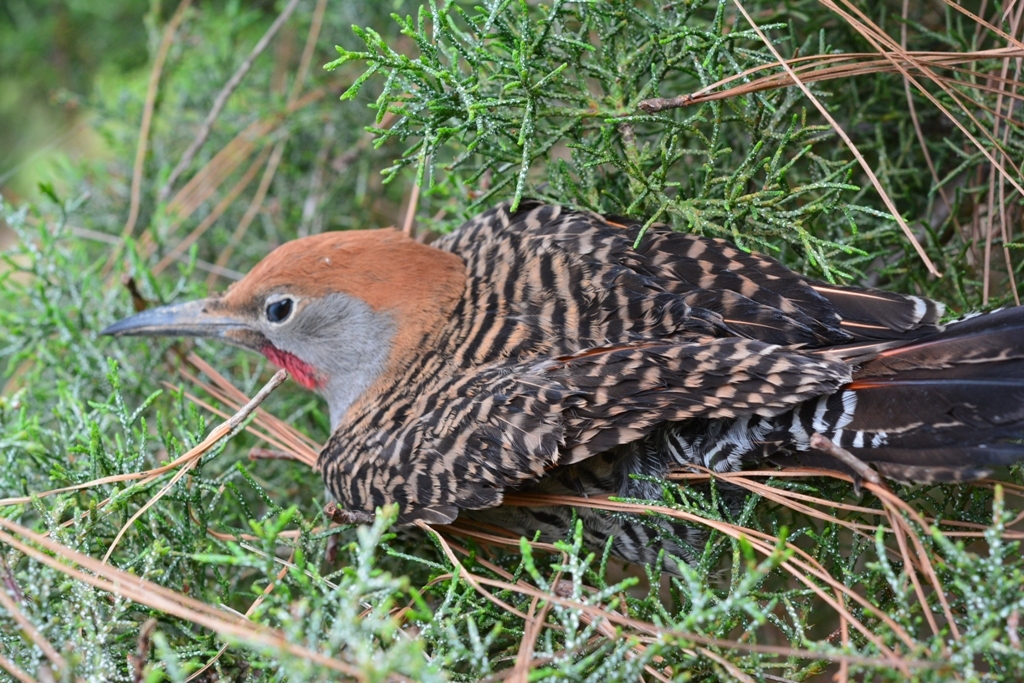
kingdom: Animalia
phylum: Chordata
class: Aves
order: Piciformes
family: Picidae
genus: Colaptes
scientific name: Colaptes auratus
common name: Northern flicker
